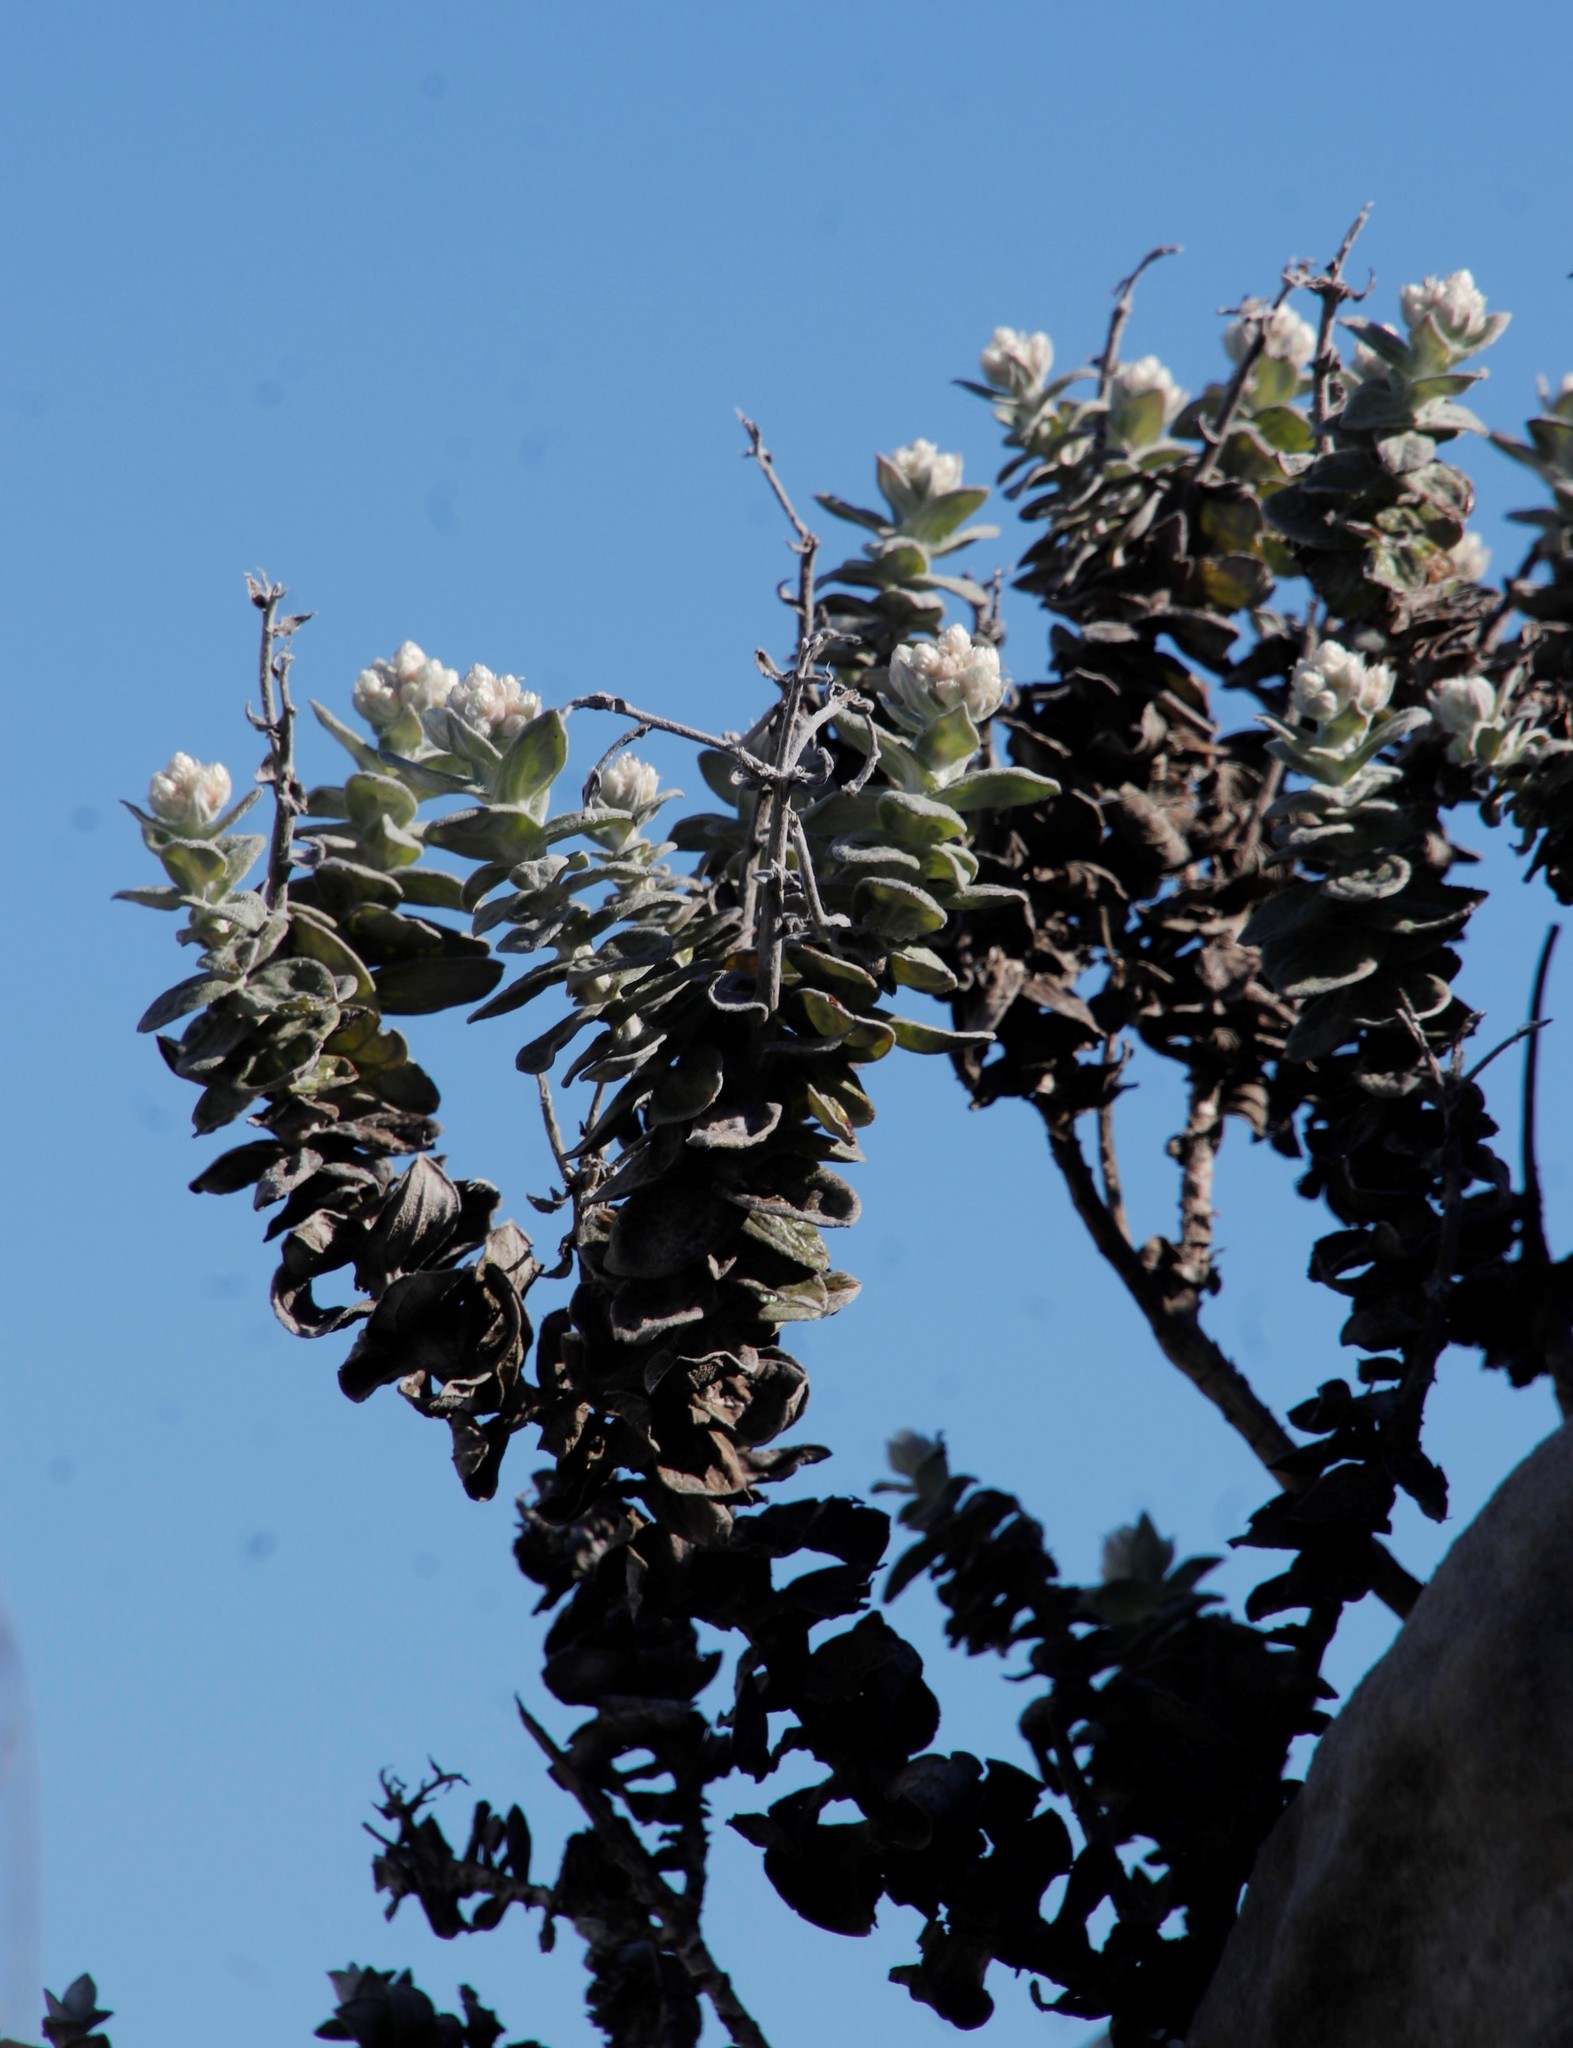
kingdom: Plantae
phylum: Tracheophyta
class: Magnoliopsida
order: Asterales
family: Asteraceae
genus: Helichrysum
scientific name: Helichrysum fruticans
